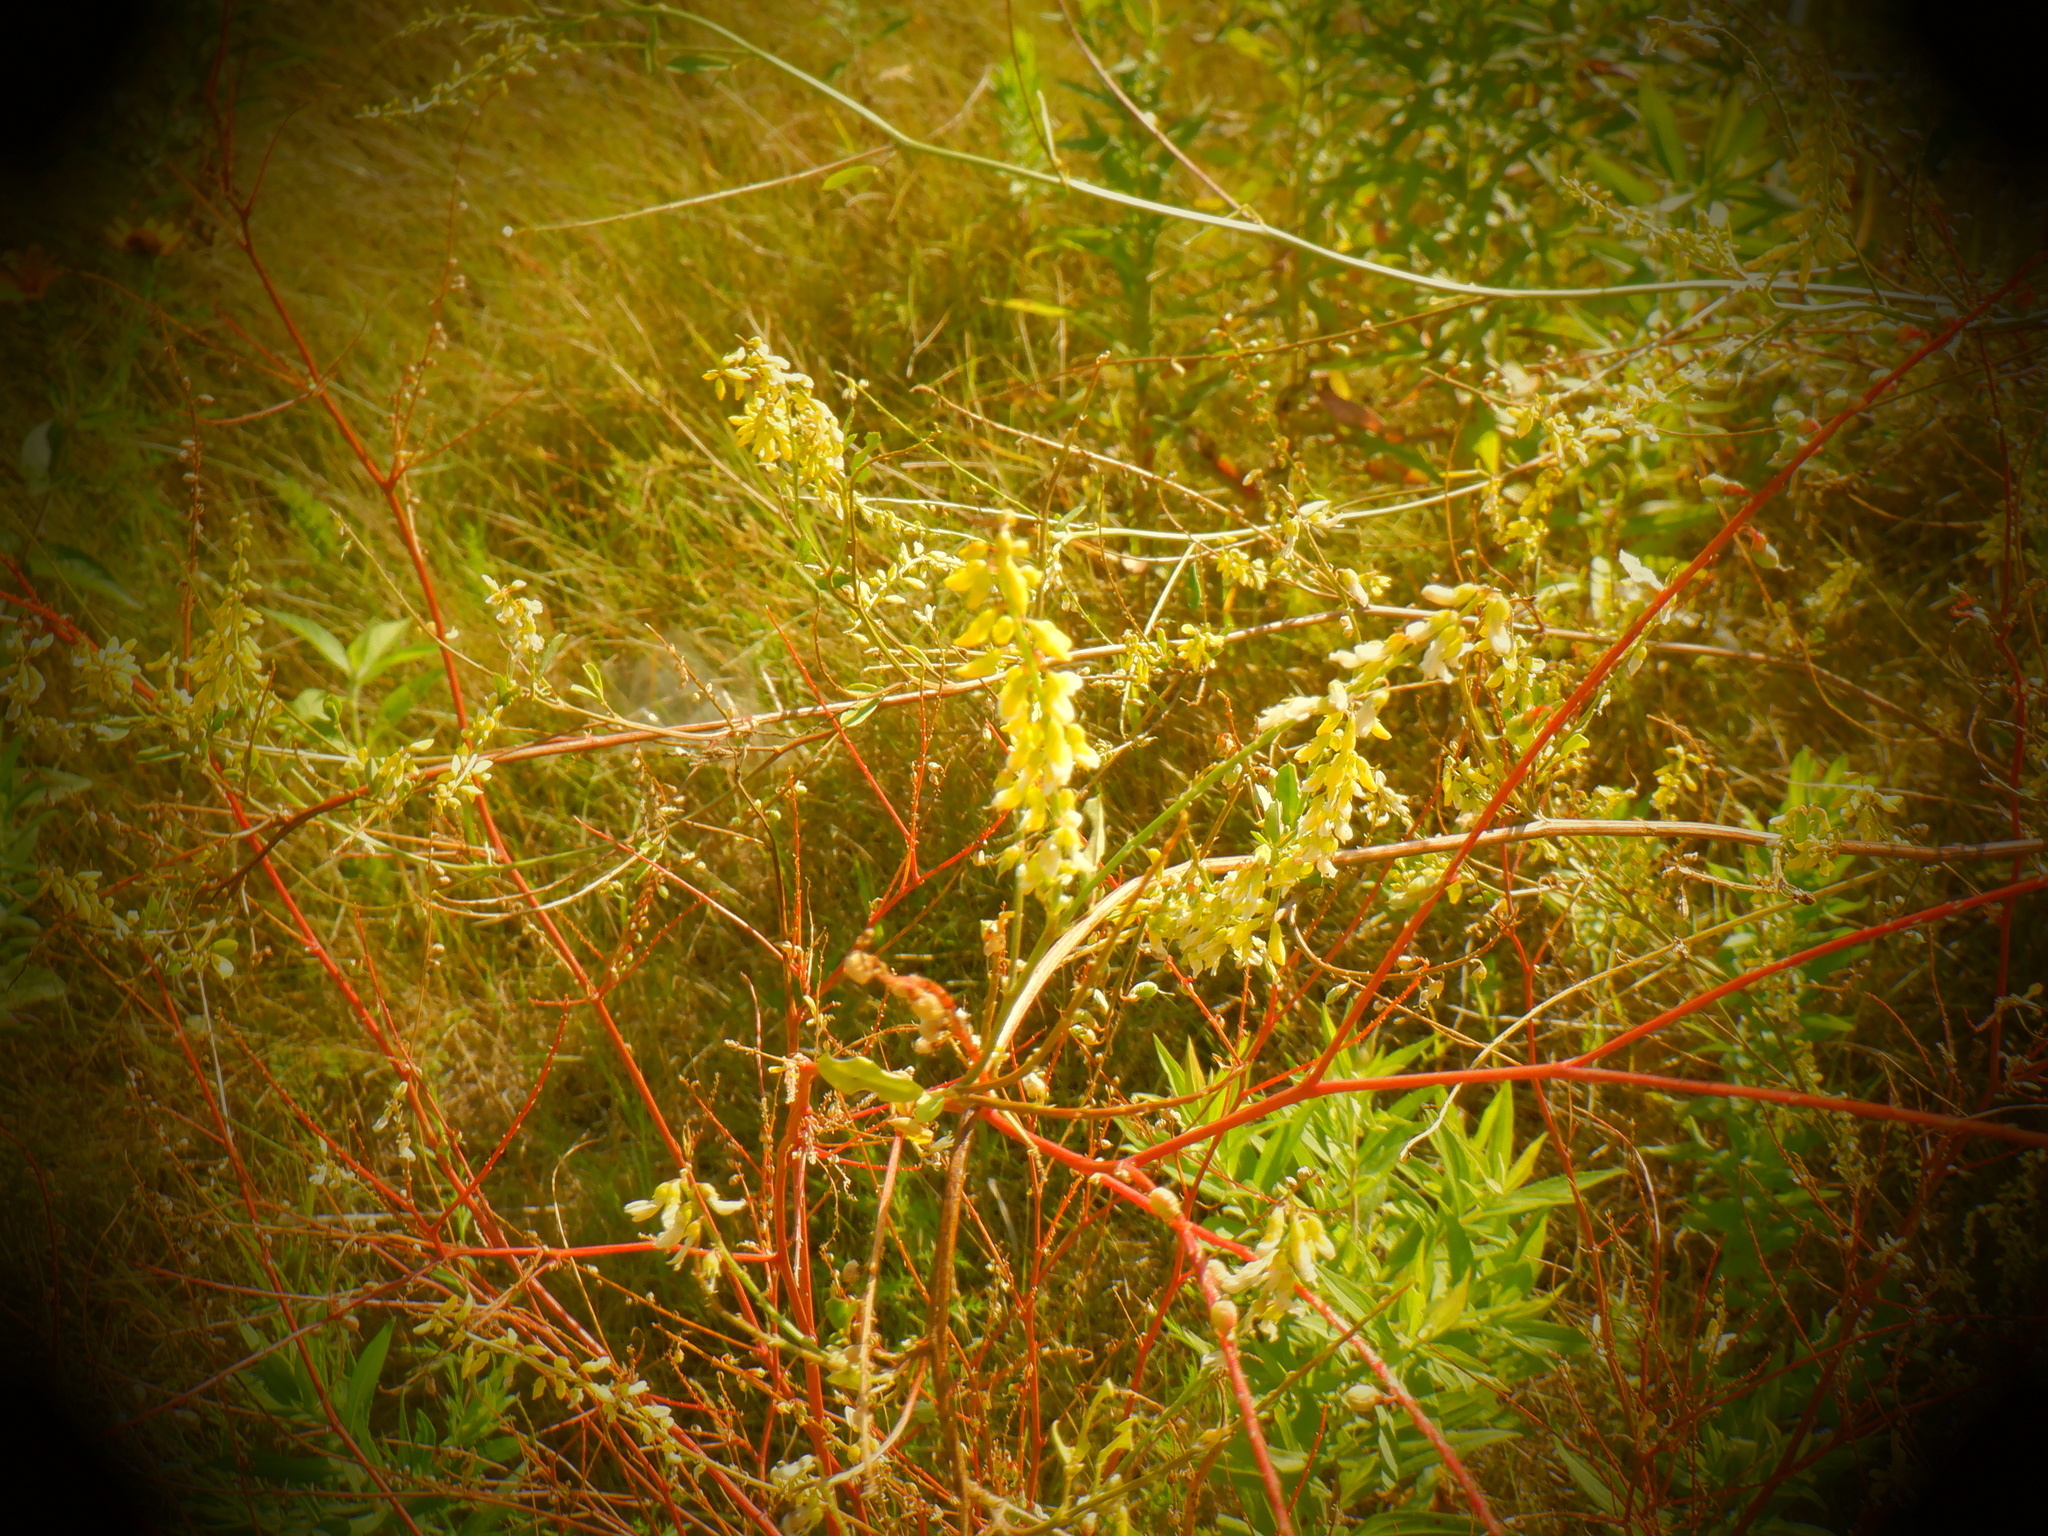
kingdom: Plantae
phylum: Tracheophyta
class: Magnoliopsida
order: Fabales
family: Fabaceae
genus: Melilotus
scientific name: Melilotus officinalis
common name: Sweetclover
